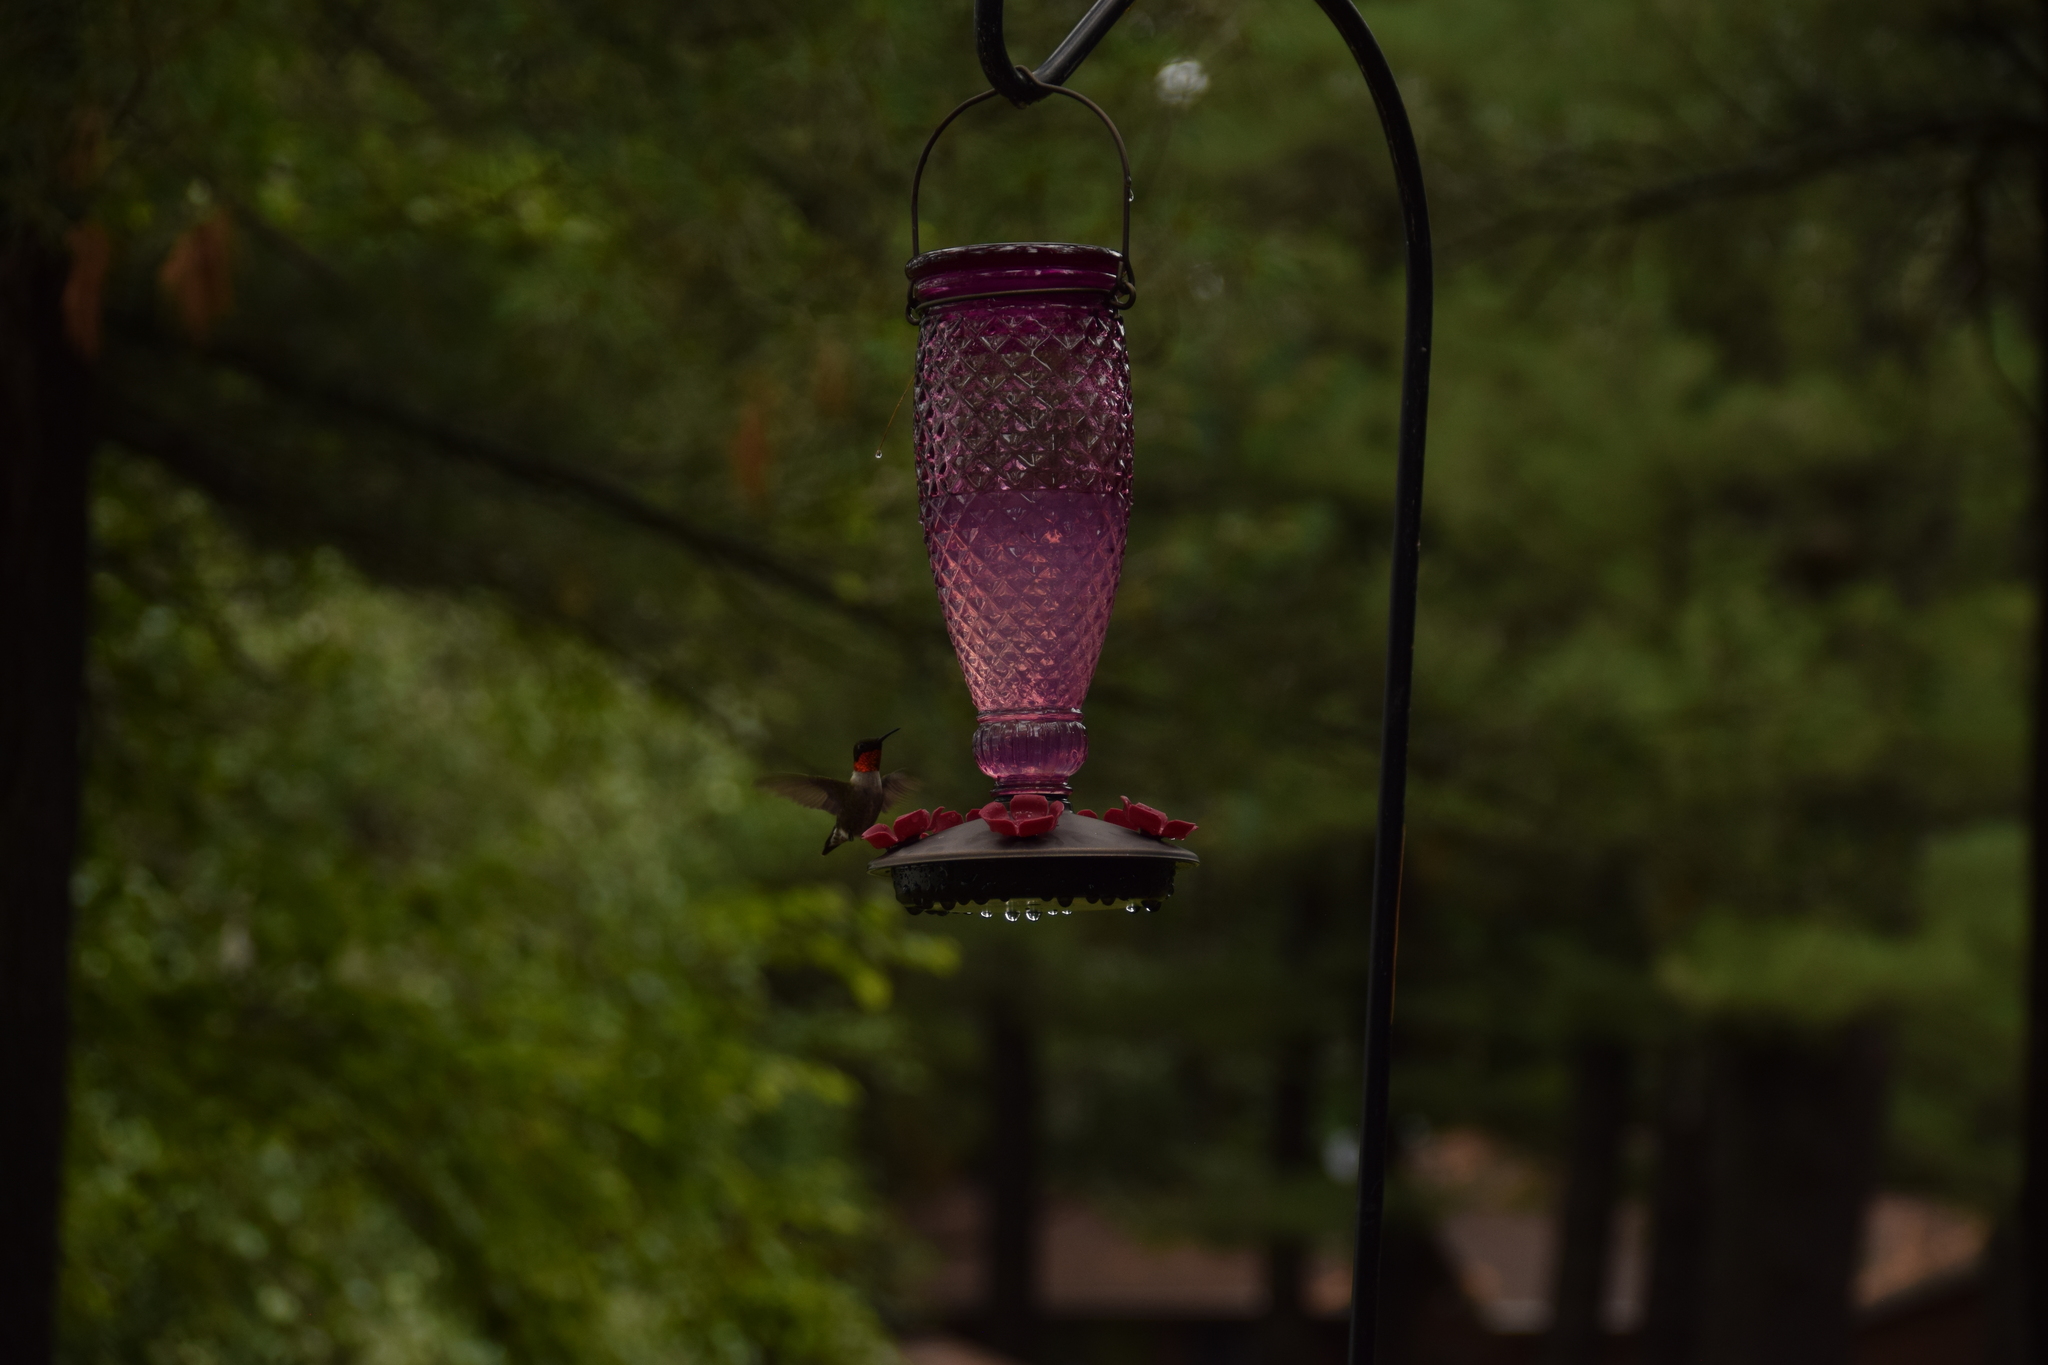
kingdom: Animalia
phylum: Chordata
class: Aves
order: Apodiformes
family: Trochilidae
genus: Archilochus
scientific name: Archilochus colubris
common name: Ruby-throated hummingbird
